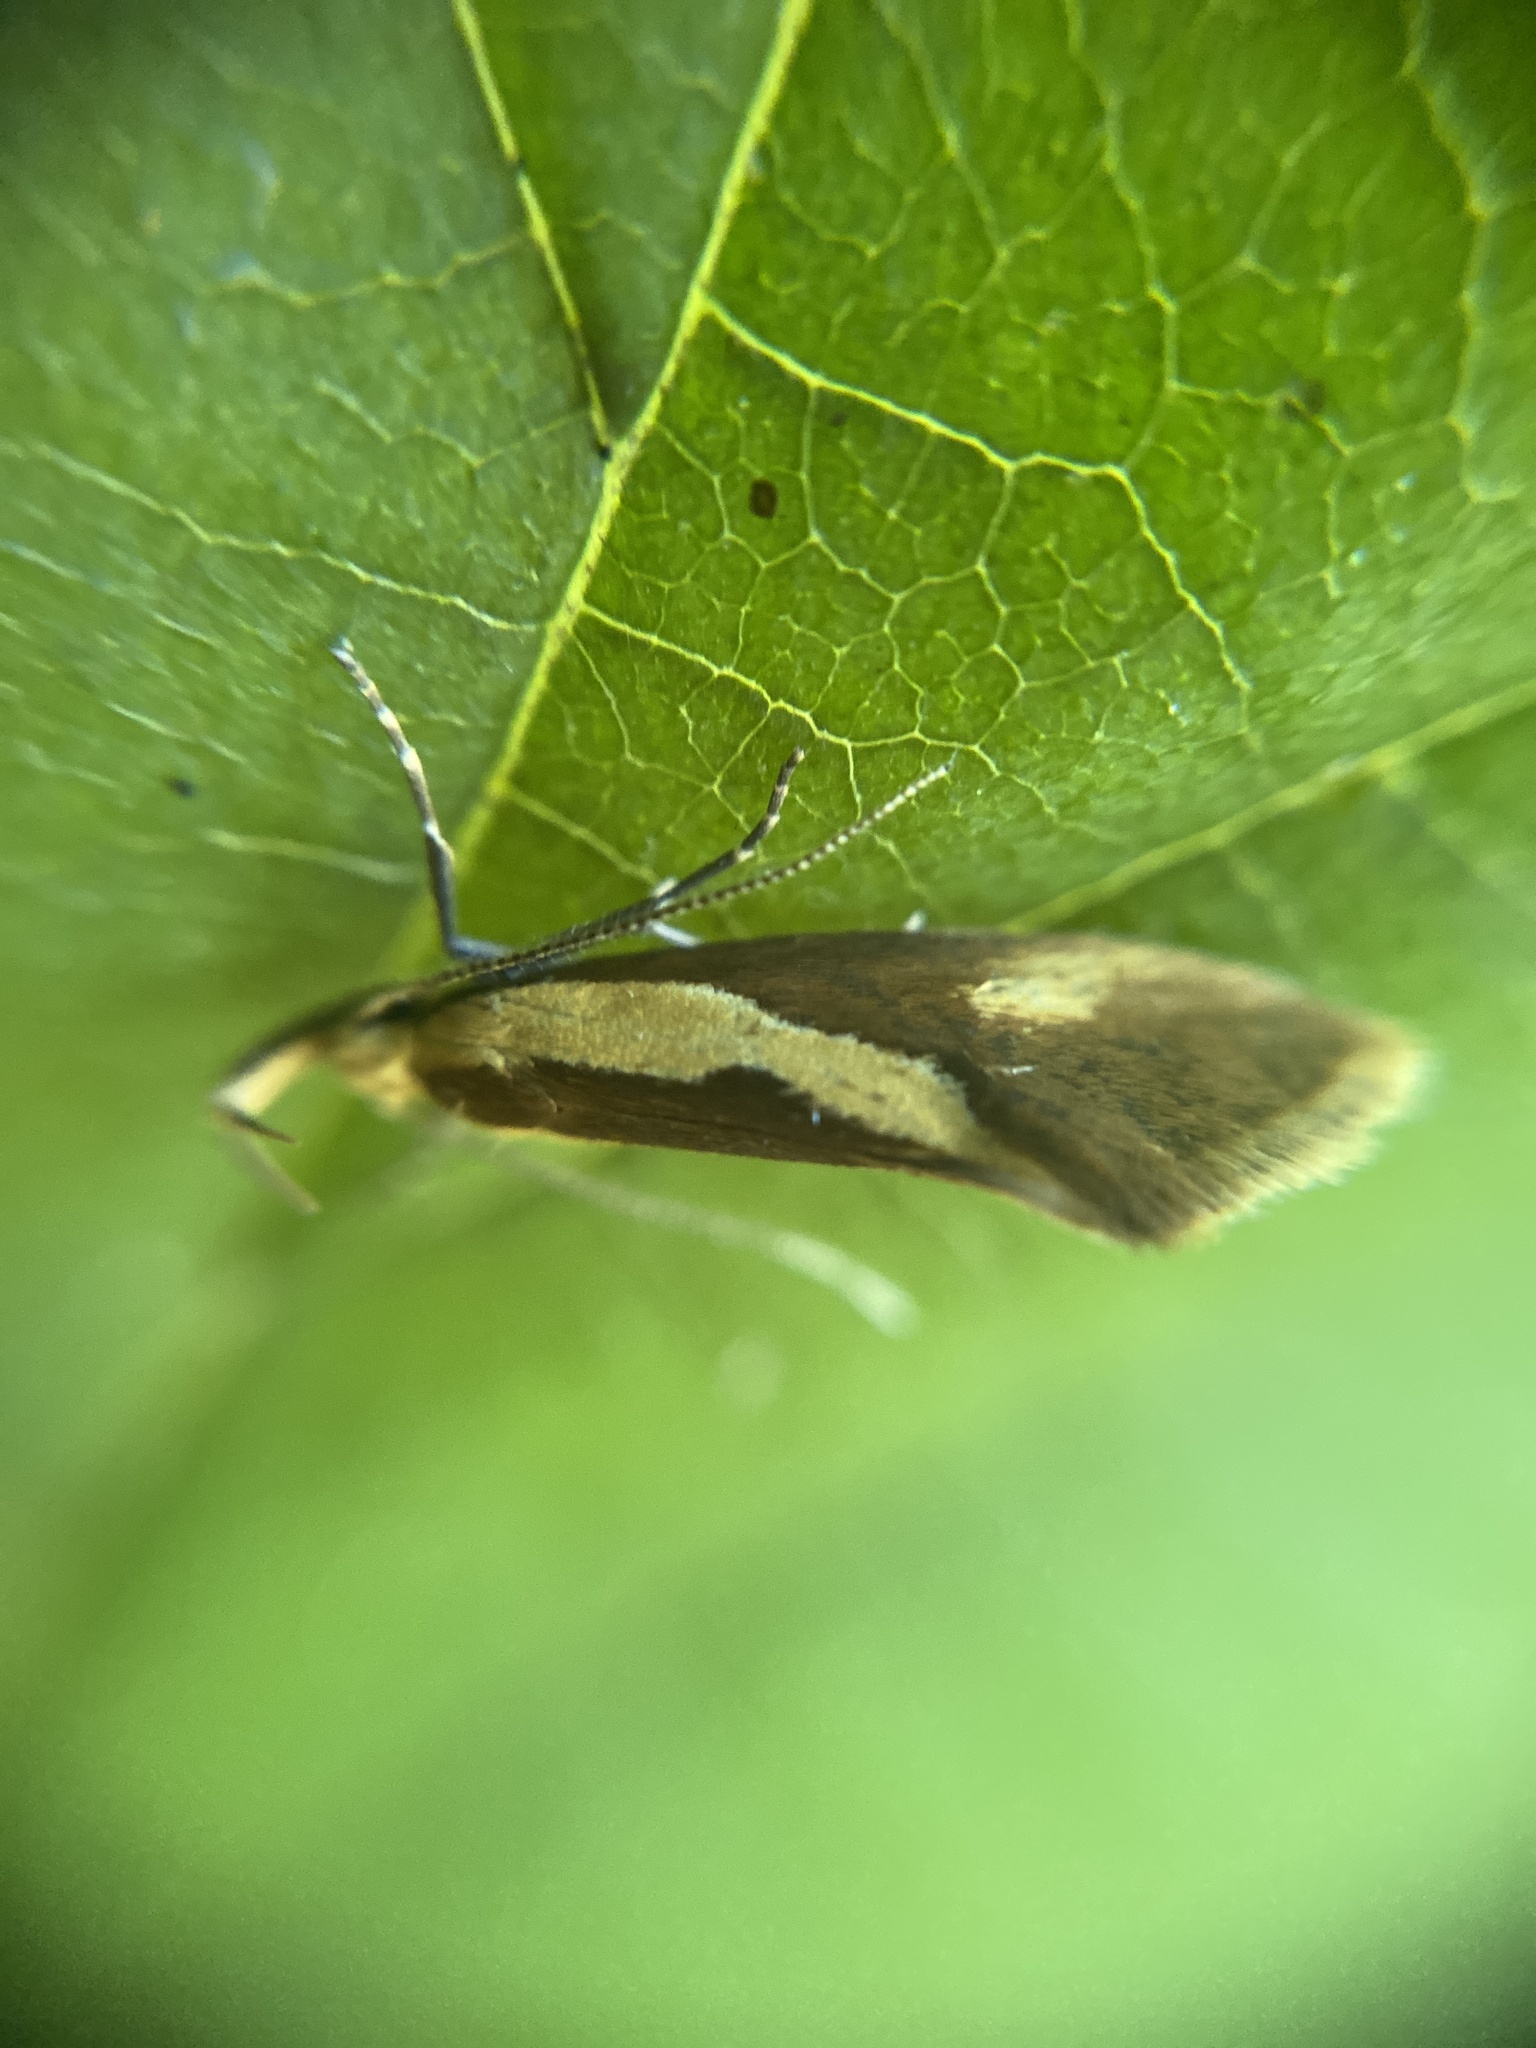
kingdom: Animalia
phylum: Arthropoda
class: Insecta
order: Lepidoptera
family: Oecophoridae
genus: Harpella
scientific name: Harpella forficella
